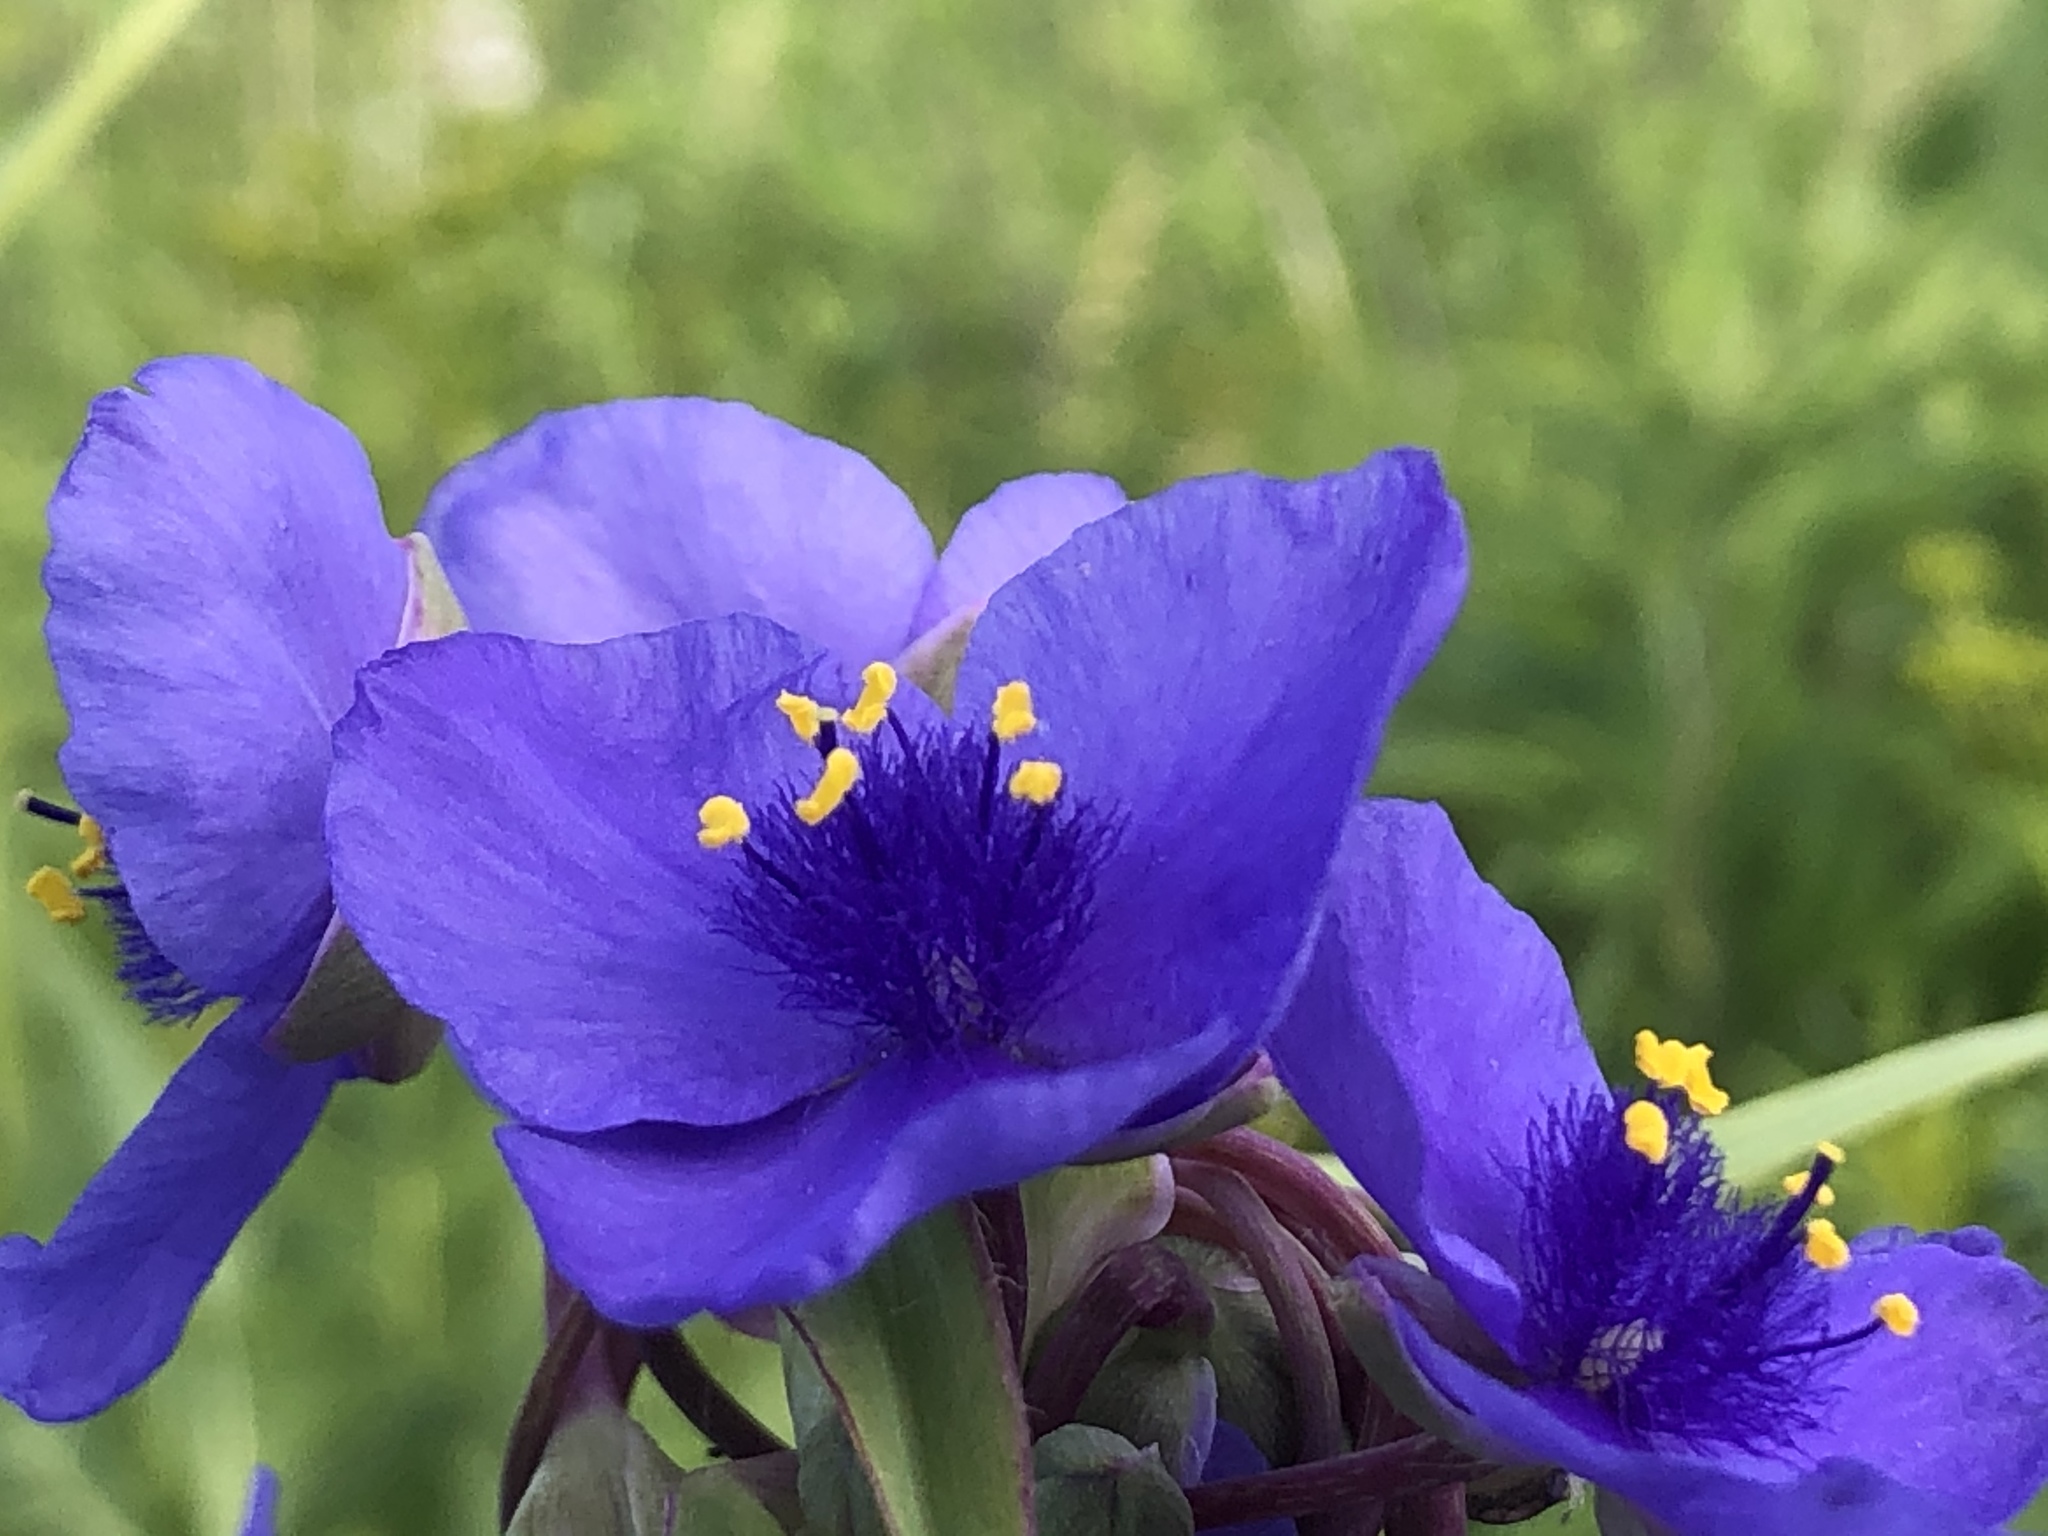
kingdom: Plantae
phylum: Tracheophyta
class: Liliopsida
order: Commelinales
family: Commelinaceae
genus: Tradescantia
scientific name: Tradescantia ohiensis
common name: Ohio spiderwort
